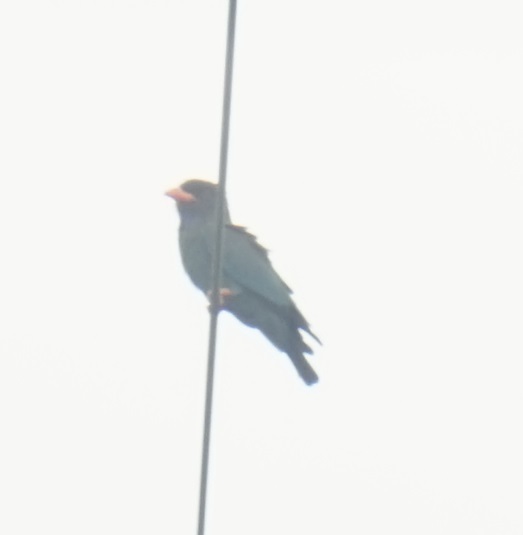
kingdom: Animalia
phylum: Chordata
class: Aves
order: Coraciiformes
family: Coraciidae
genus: Eurystomus
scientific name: Eurystomus orientalis
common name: Oriental dollarbird
